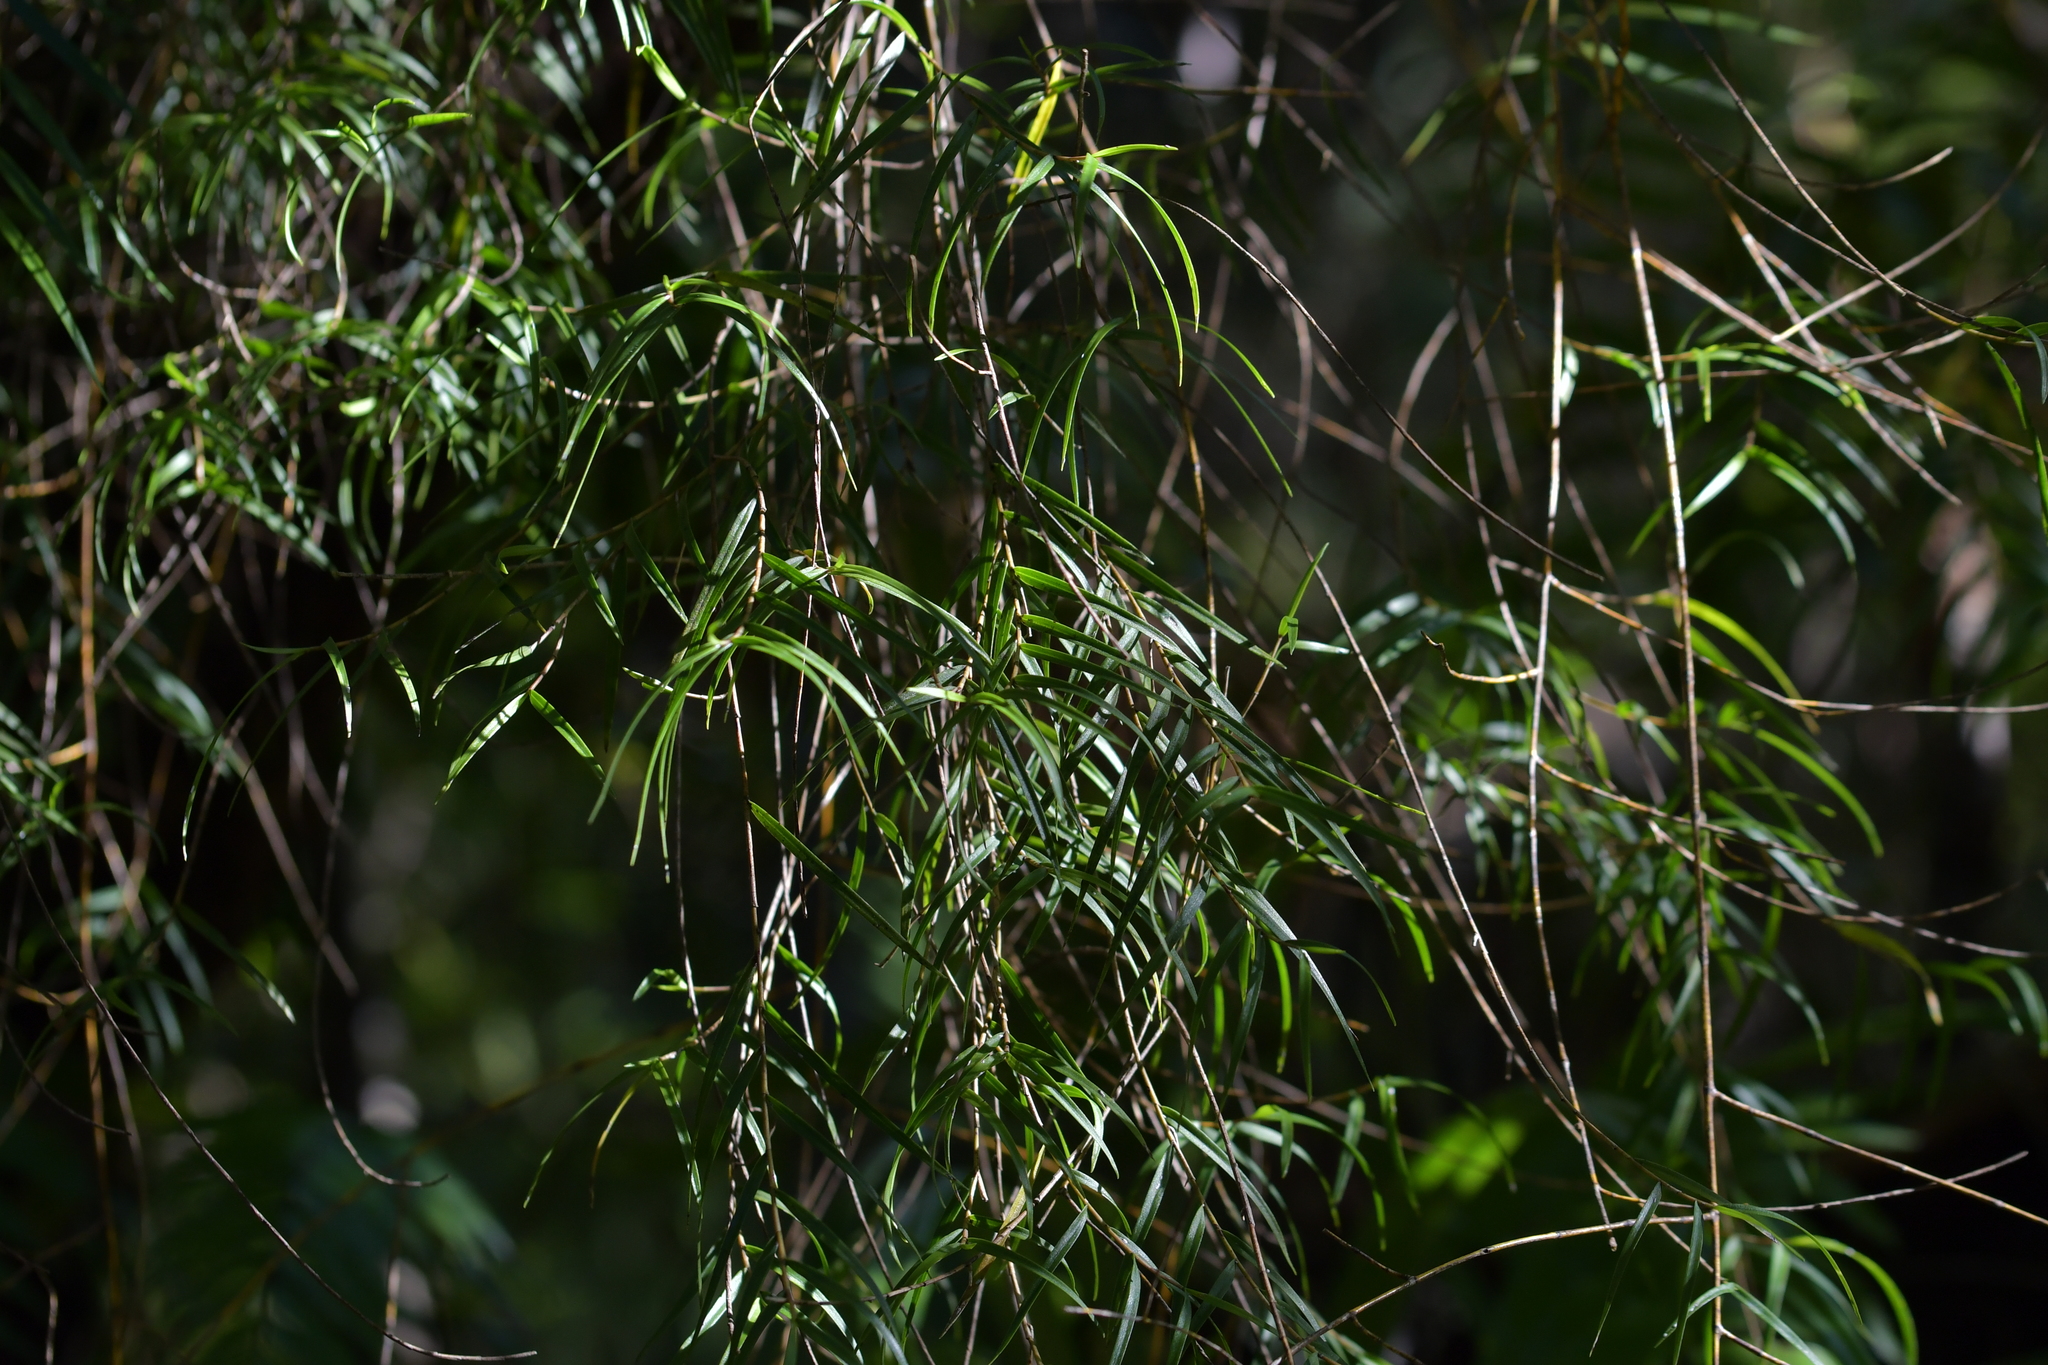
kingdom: Plantae
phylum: Tracheophyta
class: Liliopsida
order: Asparagales
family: Orchidaceae
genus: Dendrobium
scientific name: Dendrobium cunninghamii
